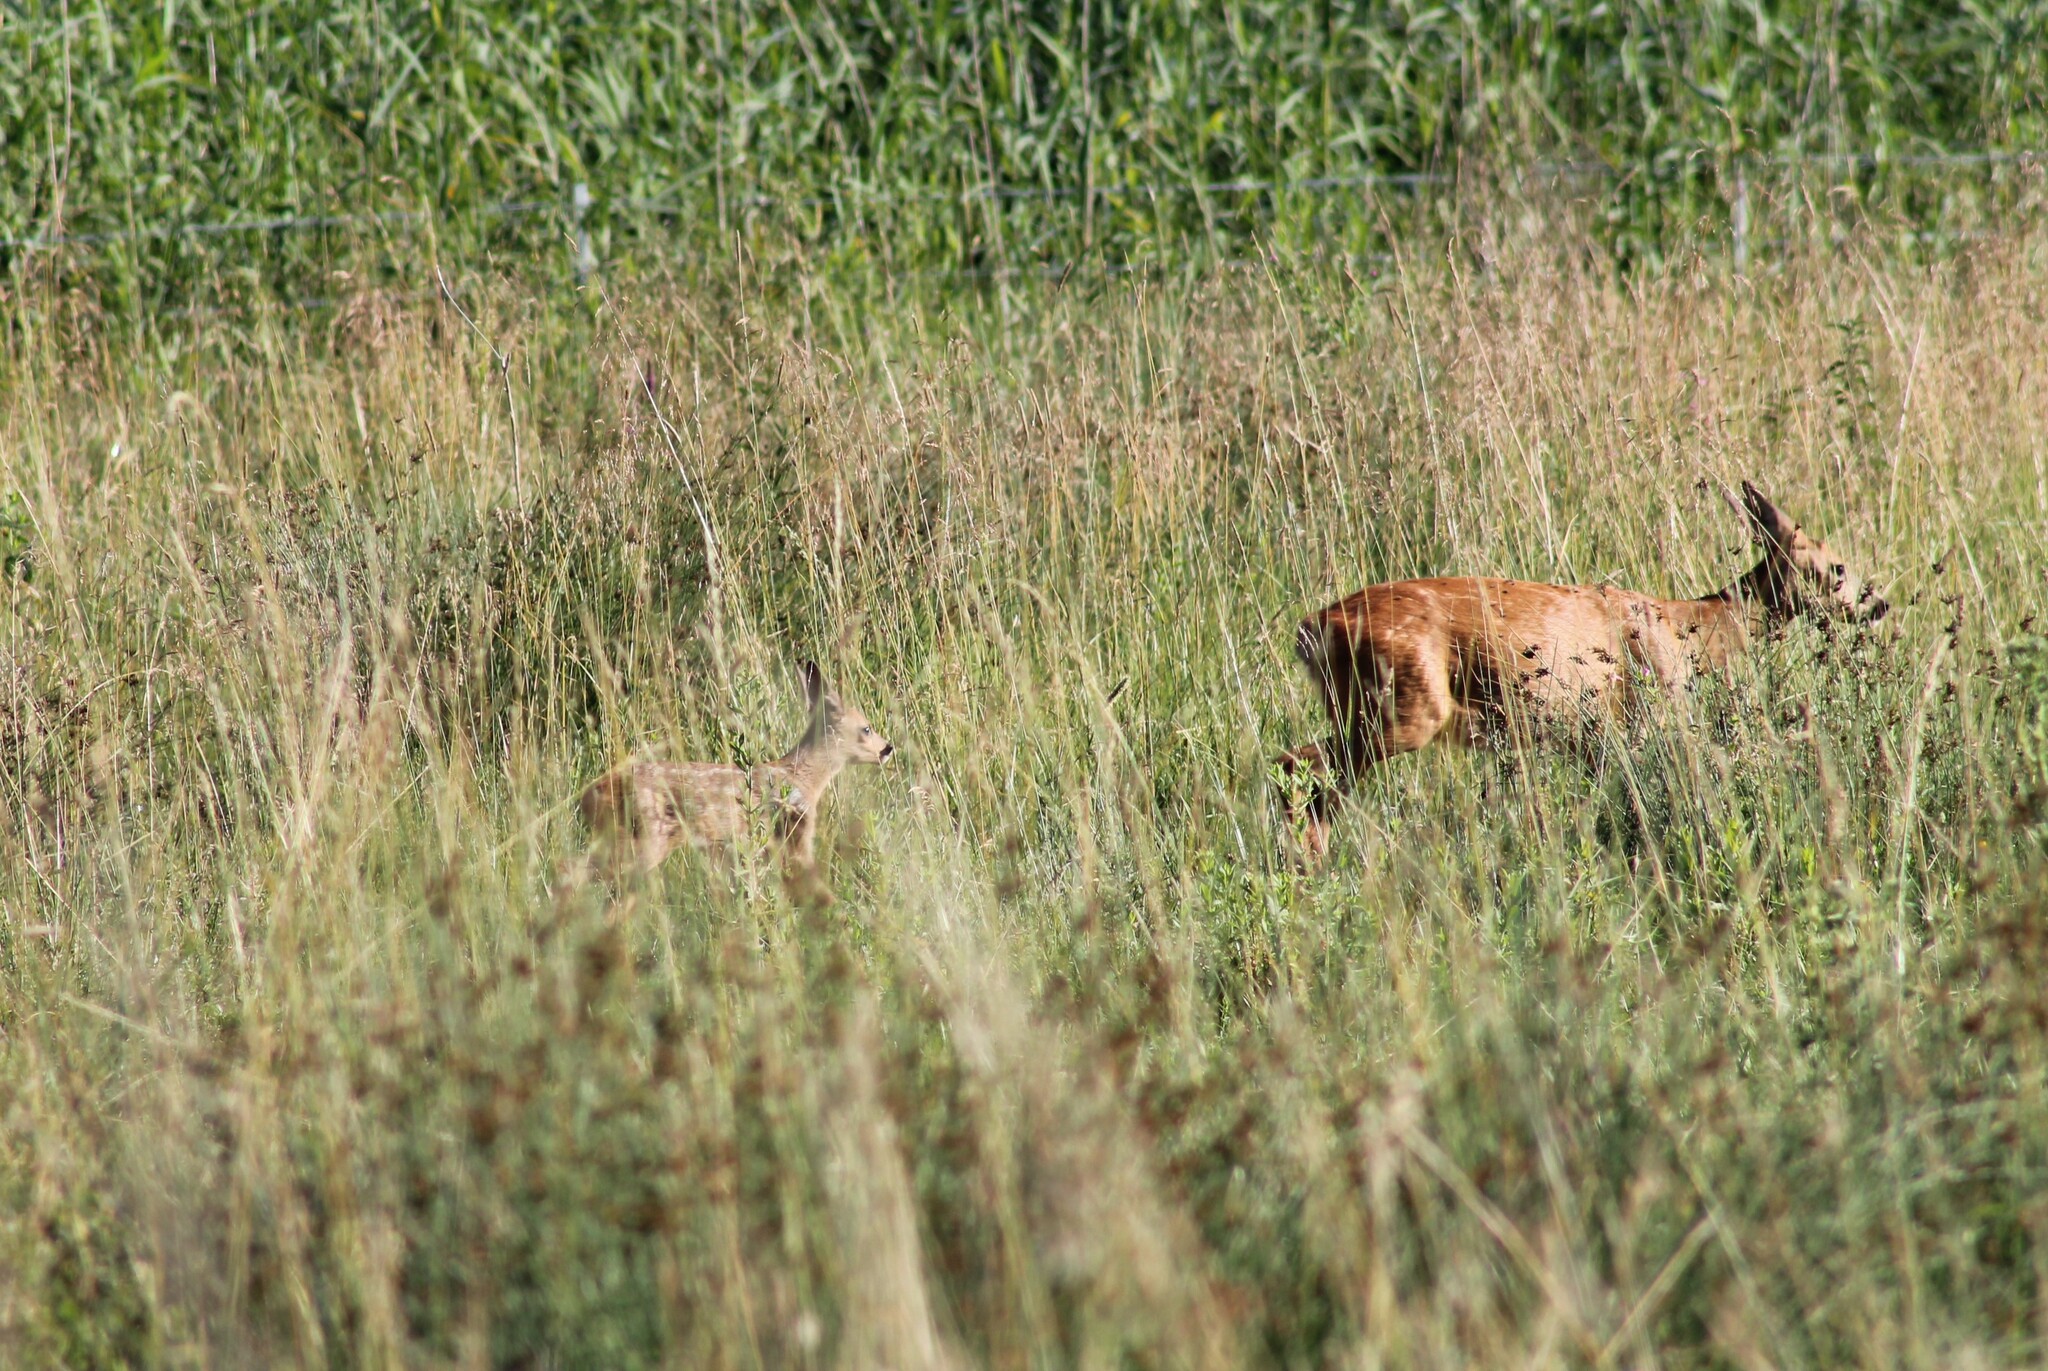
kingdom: Animalia
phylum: Chordata
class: Mammalia
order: Artiodactyla
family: Cervidae
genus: Capreolus
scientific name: Capreolus capreolus
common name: Western roe deer
